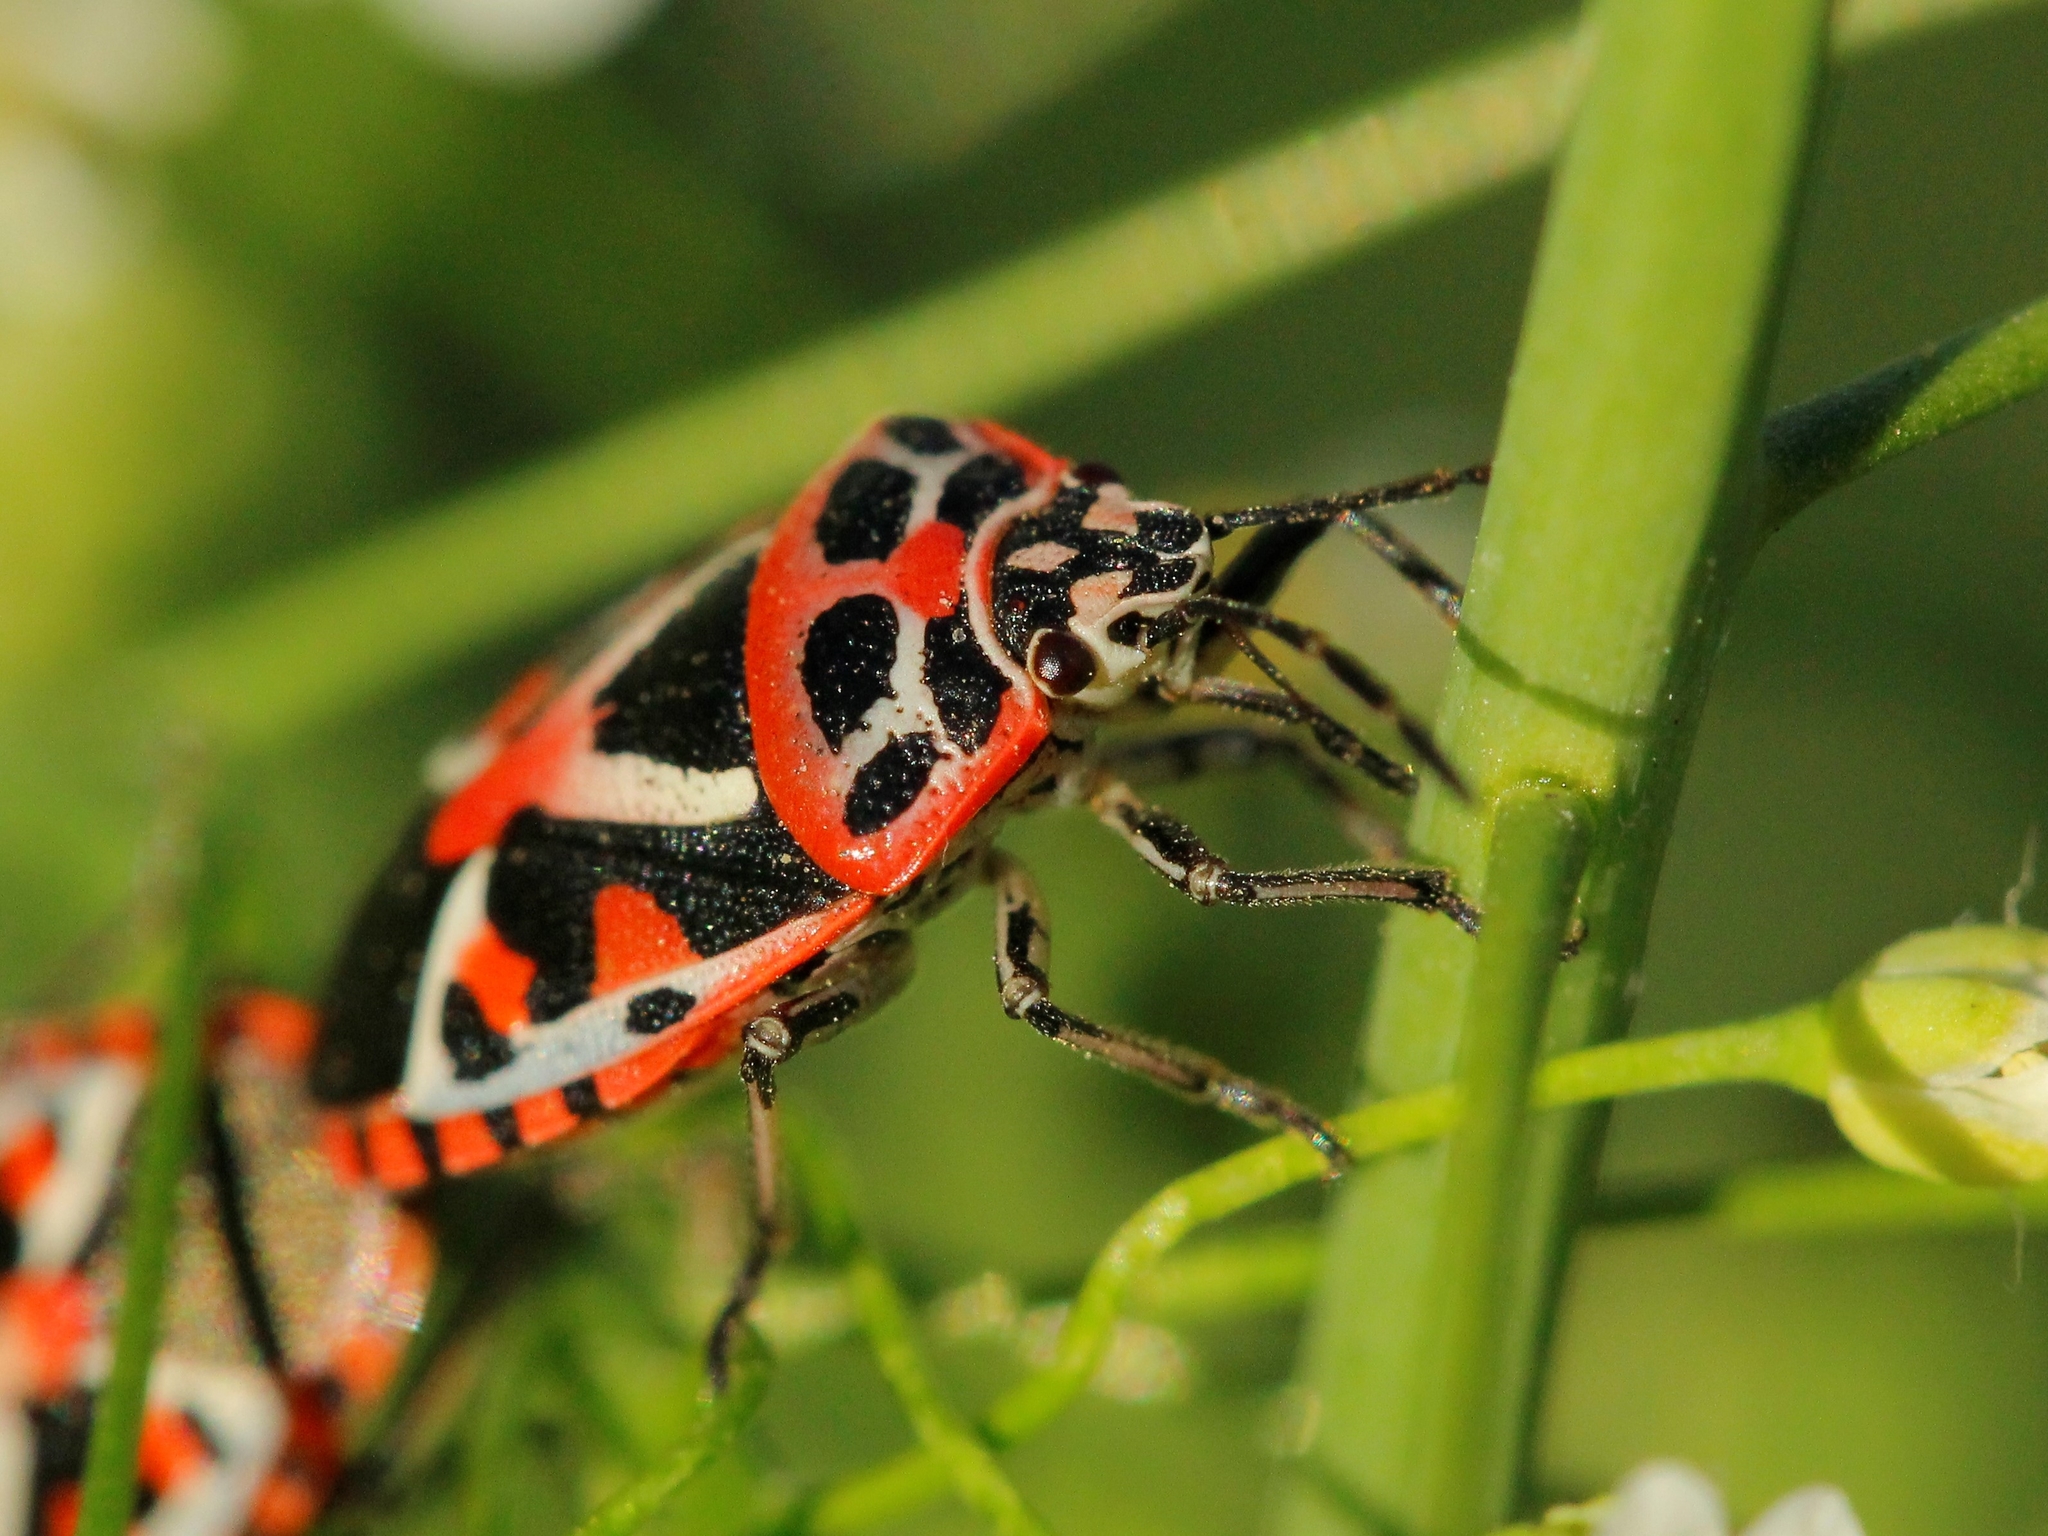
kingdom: Animalia
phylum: Arthropoda
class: Insecta
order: Hemiptera
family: Pentatomidae
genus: Eurydema
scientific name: Eurydema ornata
